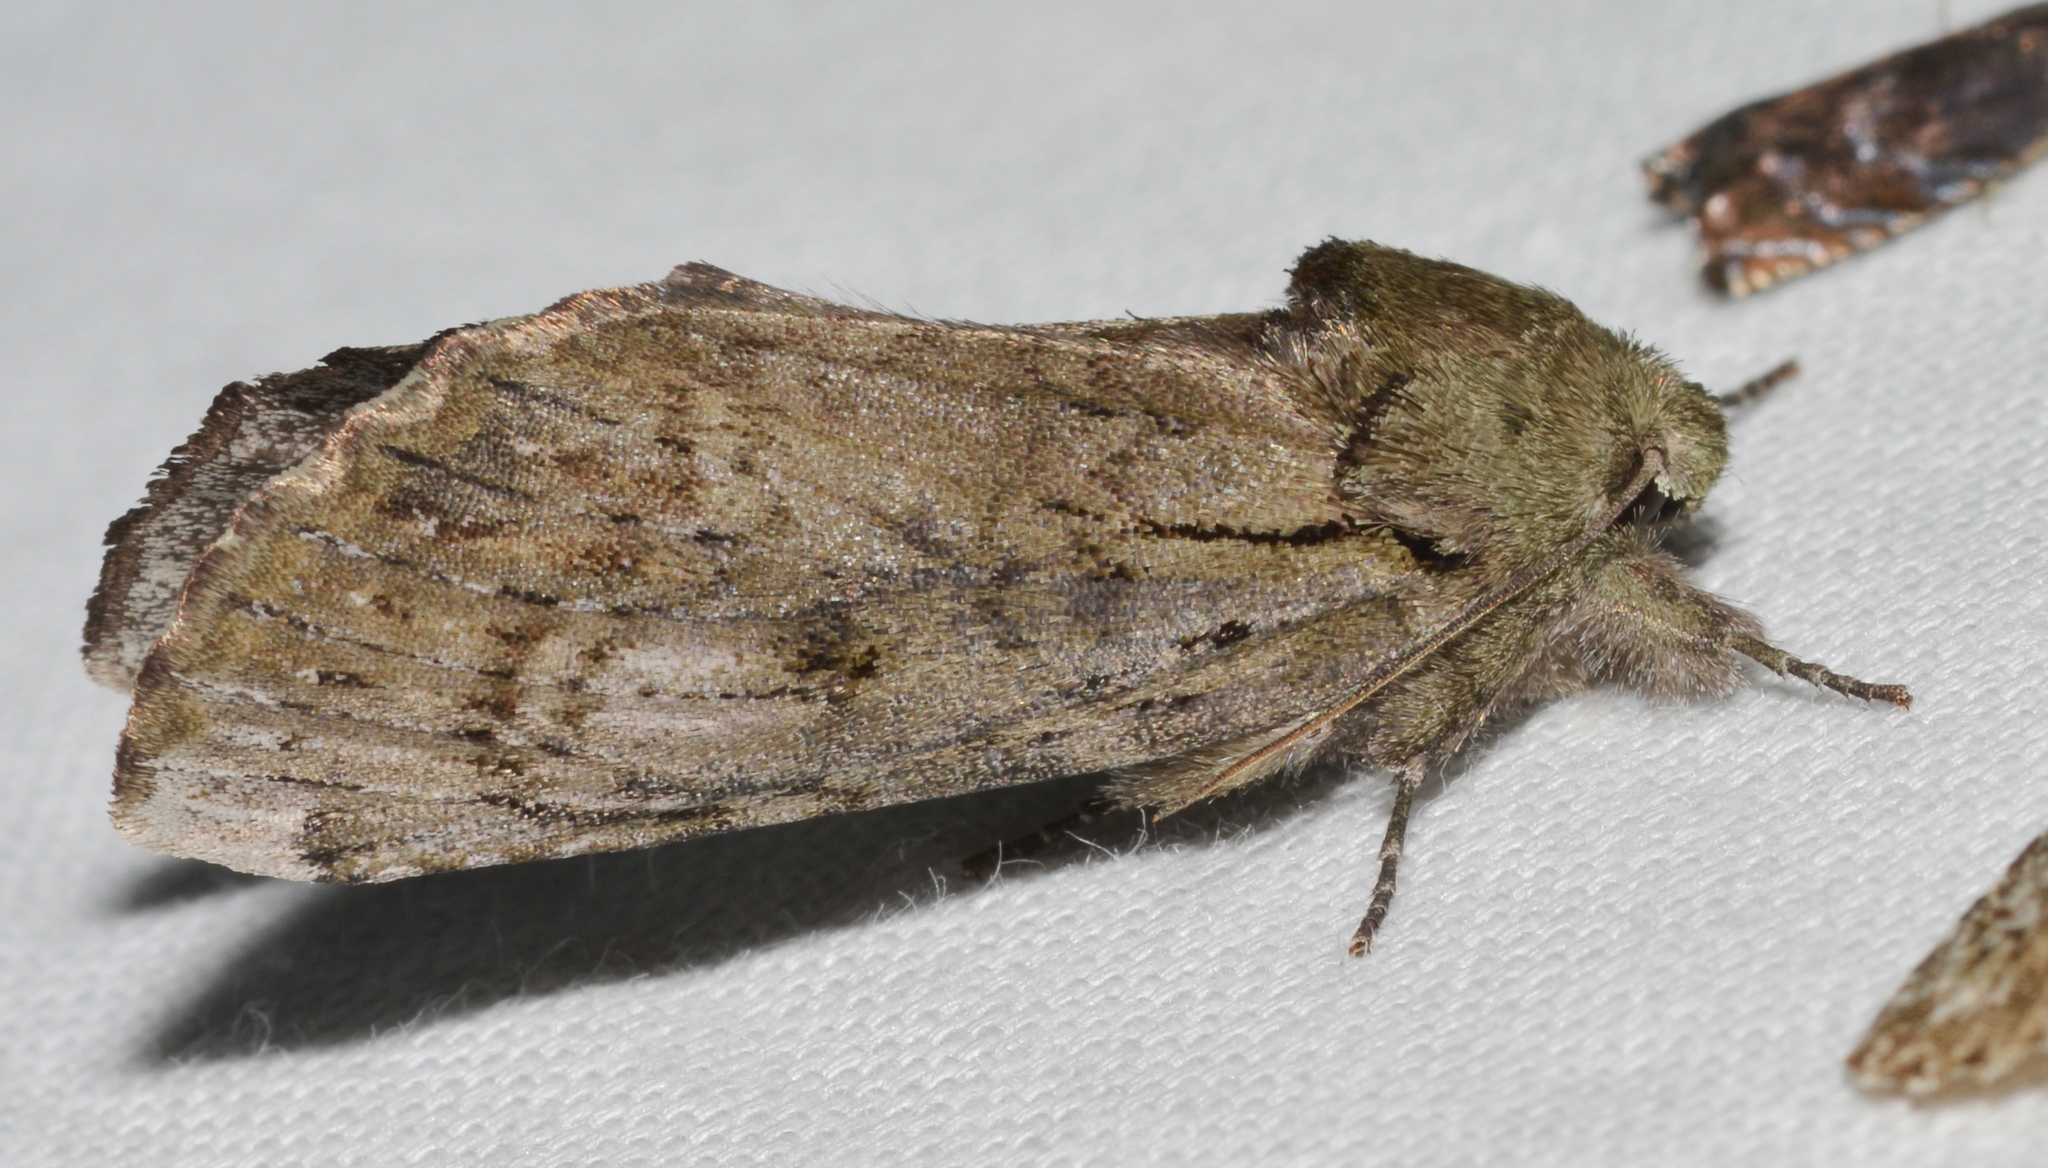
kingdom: Animalia
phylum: Arthropoda
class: Insecta
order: Lepidoptera
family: Notodontidae
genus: Schizura
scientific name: Schizura
